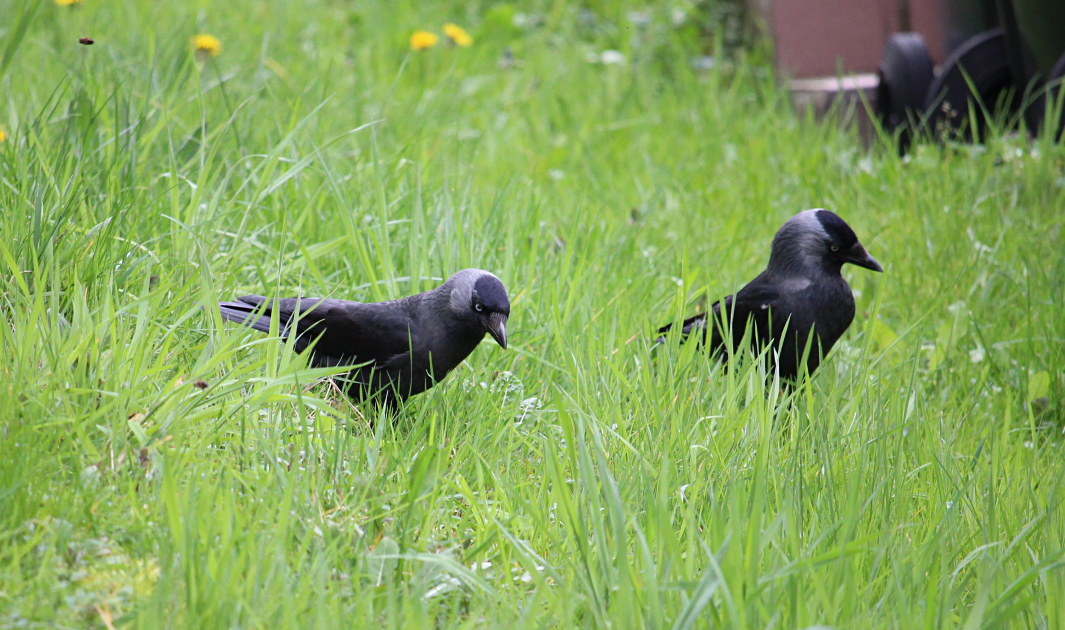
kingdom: Animalia
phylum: Chordata
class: Aves
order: Passeriformes
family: Corvidae
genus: Coloeus
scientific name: Coloeus monedula
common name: Western jackdaw
